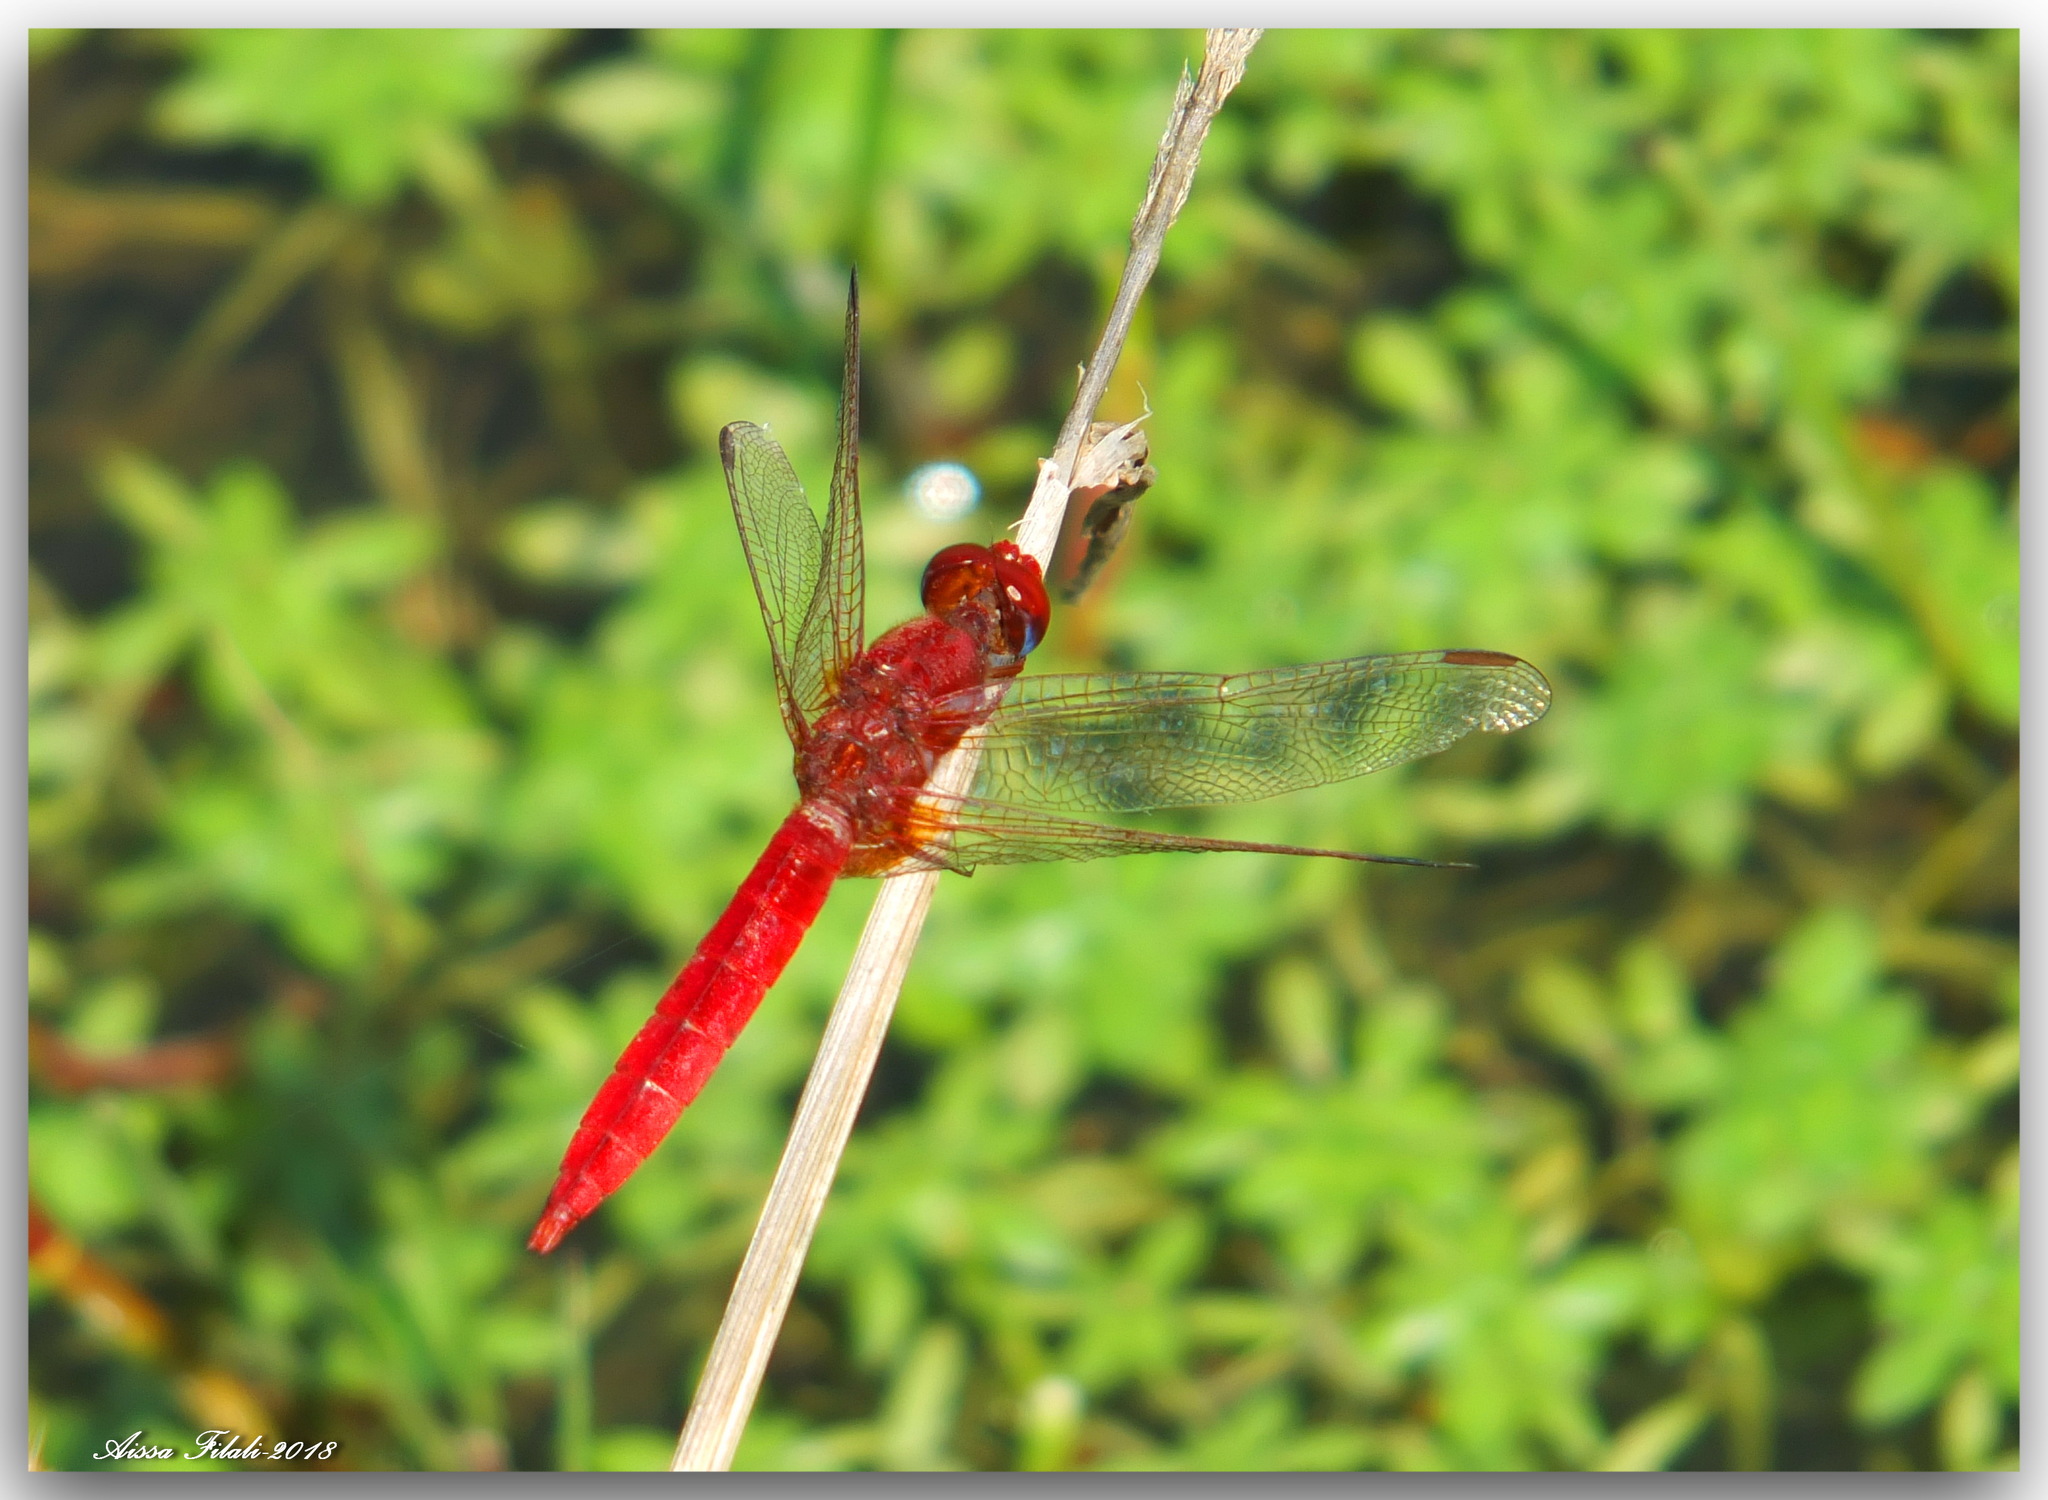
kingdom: Animalia
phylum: Arthropoda
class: Insecta
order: Odonata
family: Libellulidae
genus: Crocothemis
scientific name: Crocothemis erythraea
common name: Scarlet dragonfly
